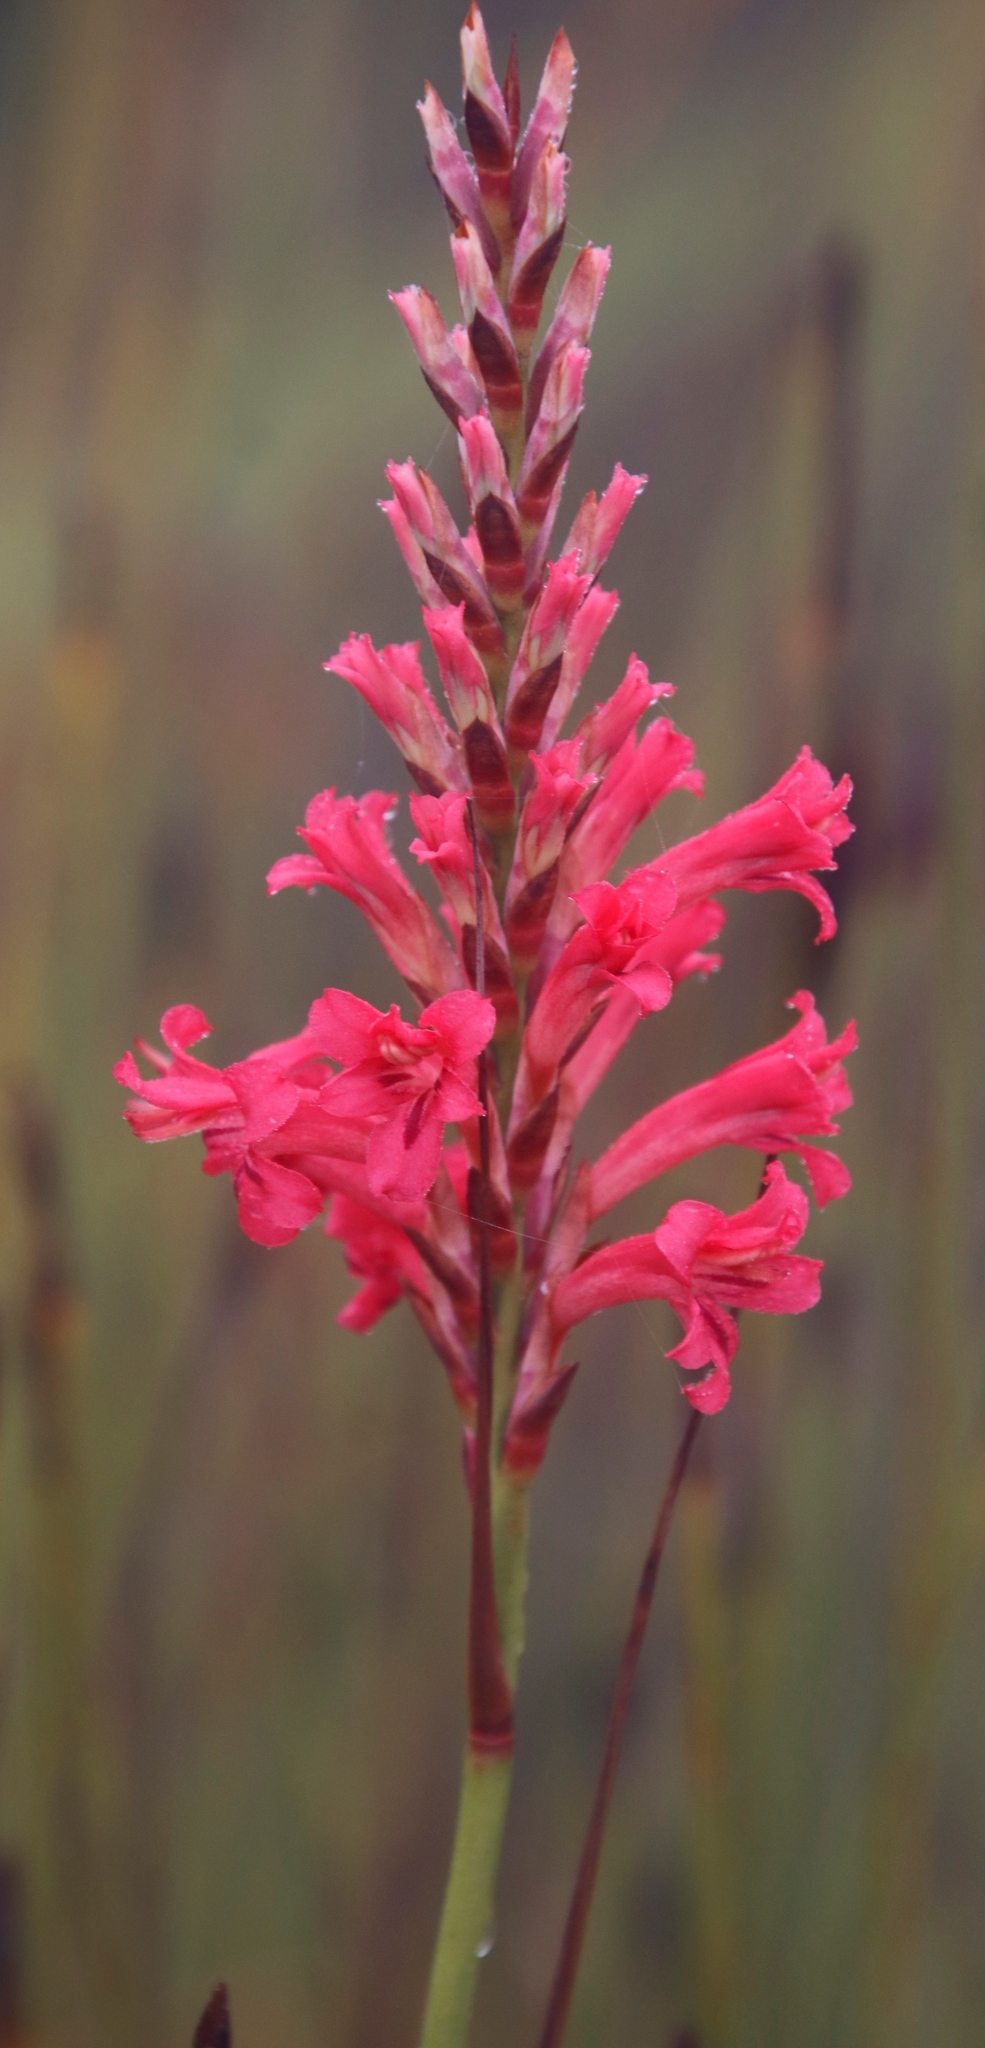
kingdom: Plantae
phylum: Tracheophyta
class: Liliopsida
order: Asparagales
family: Iridaceae
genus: Tritoniopsis
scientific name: Tritoniopsis triticea
